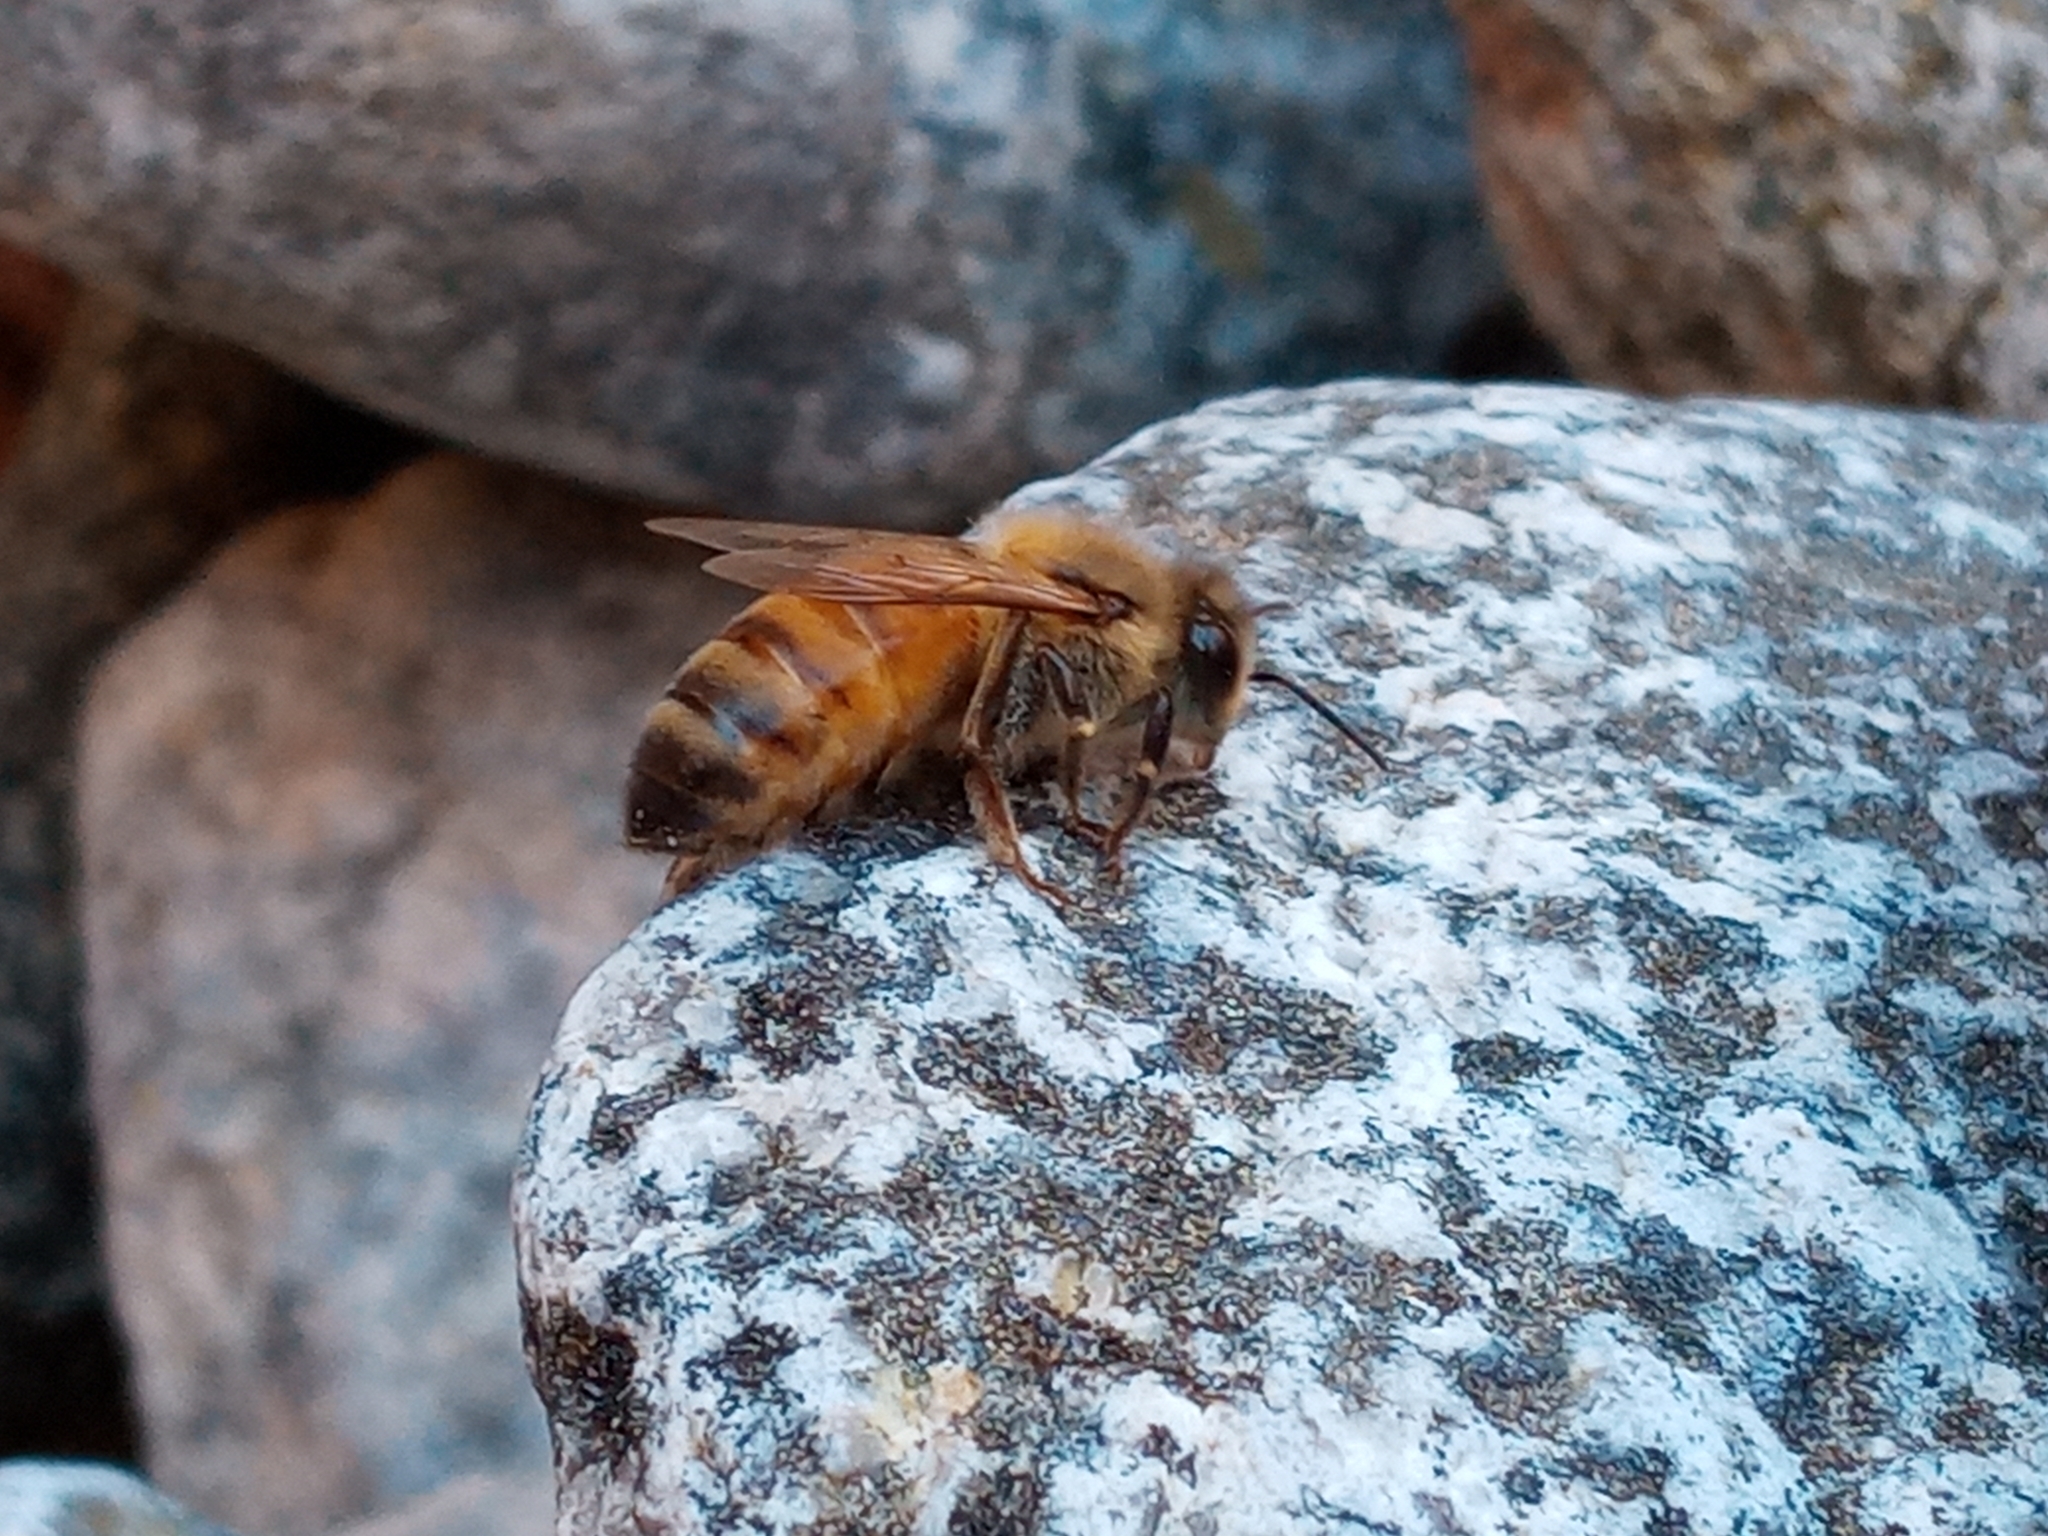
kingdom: Animalia
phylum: Arthropoda
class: Insecta
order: Hymenoptera
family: Apidae
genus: Apis
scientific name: Apis mellifera
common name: Honey bee
